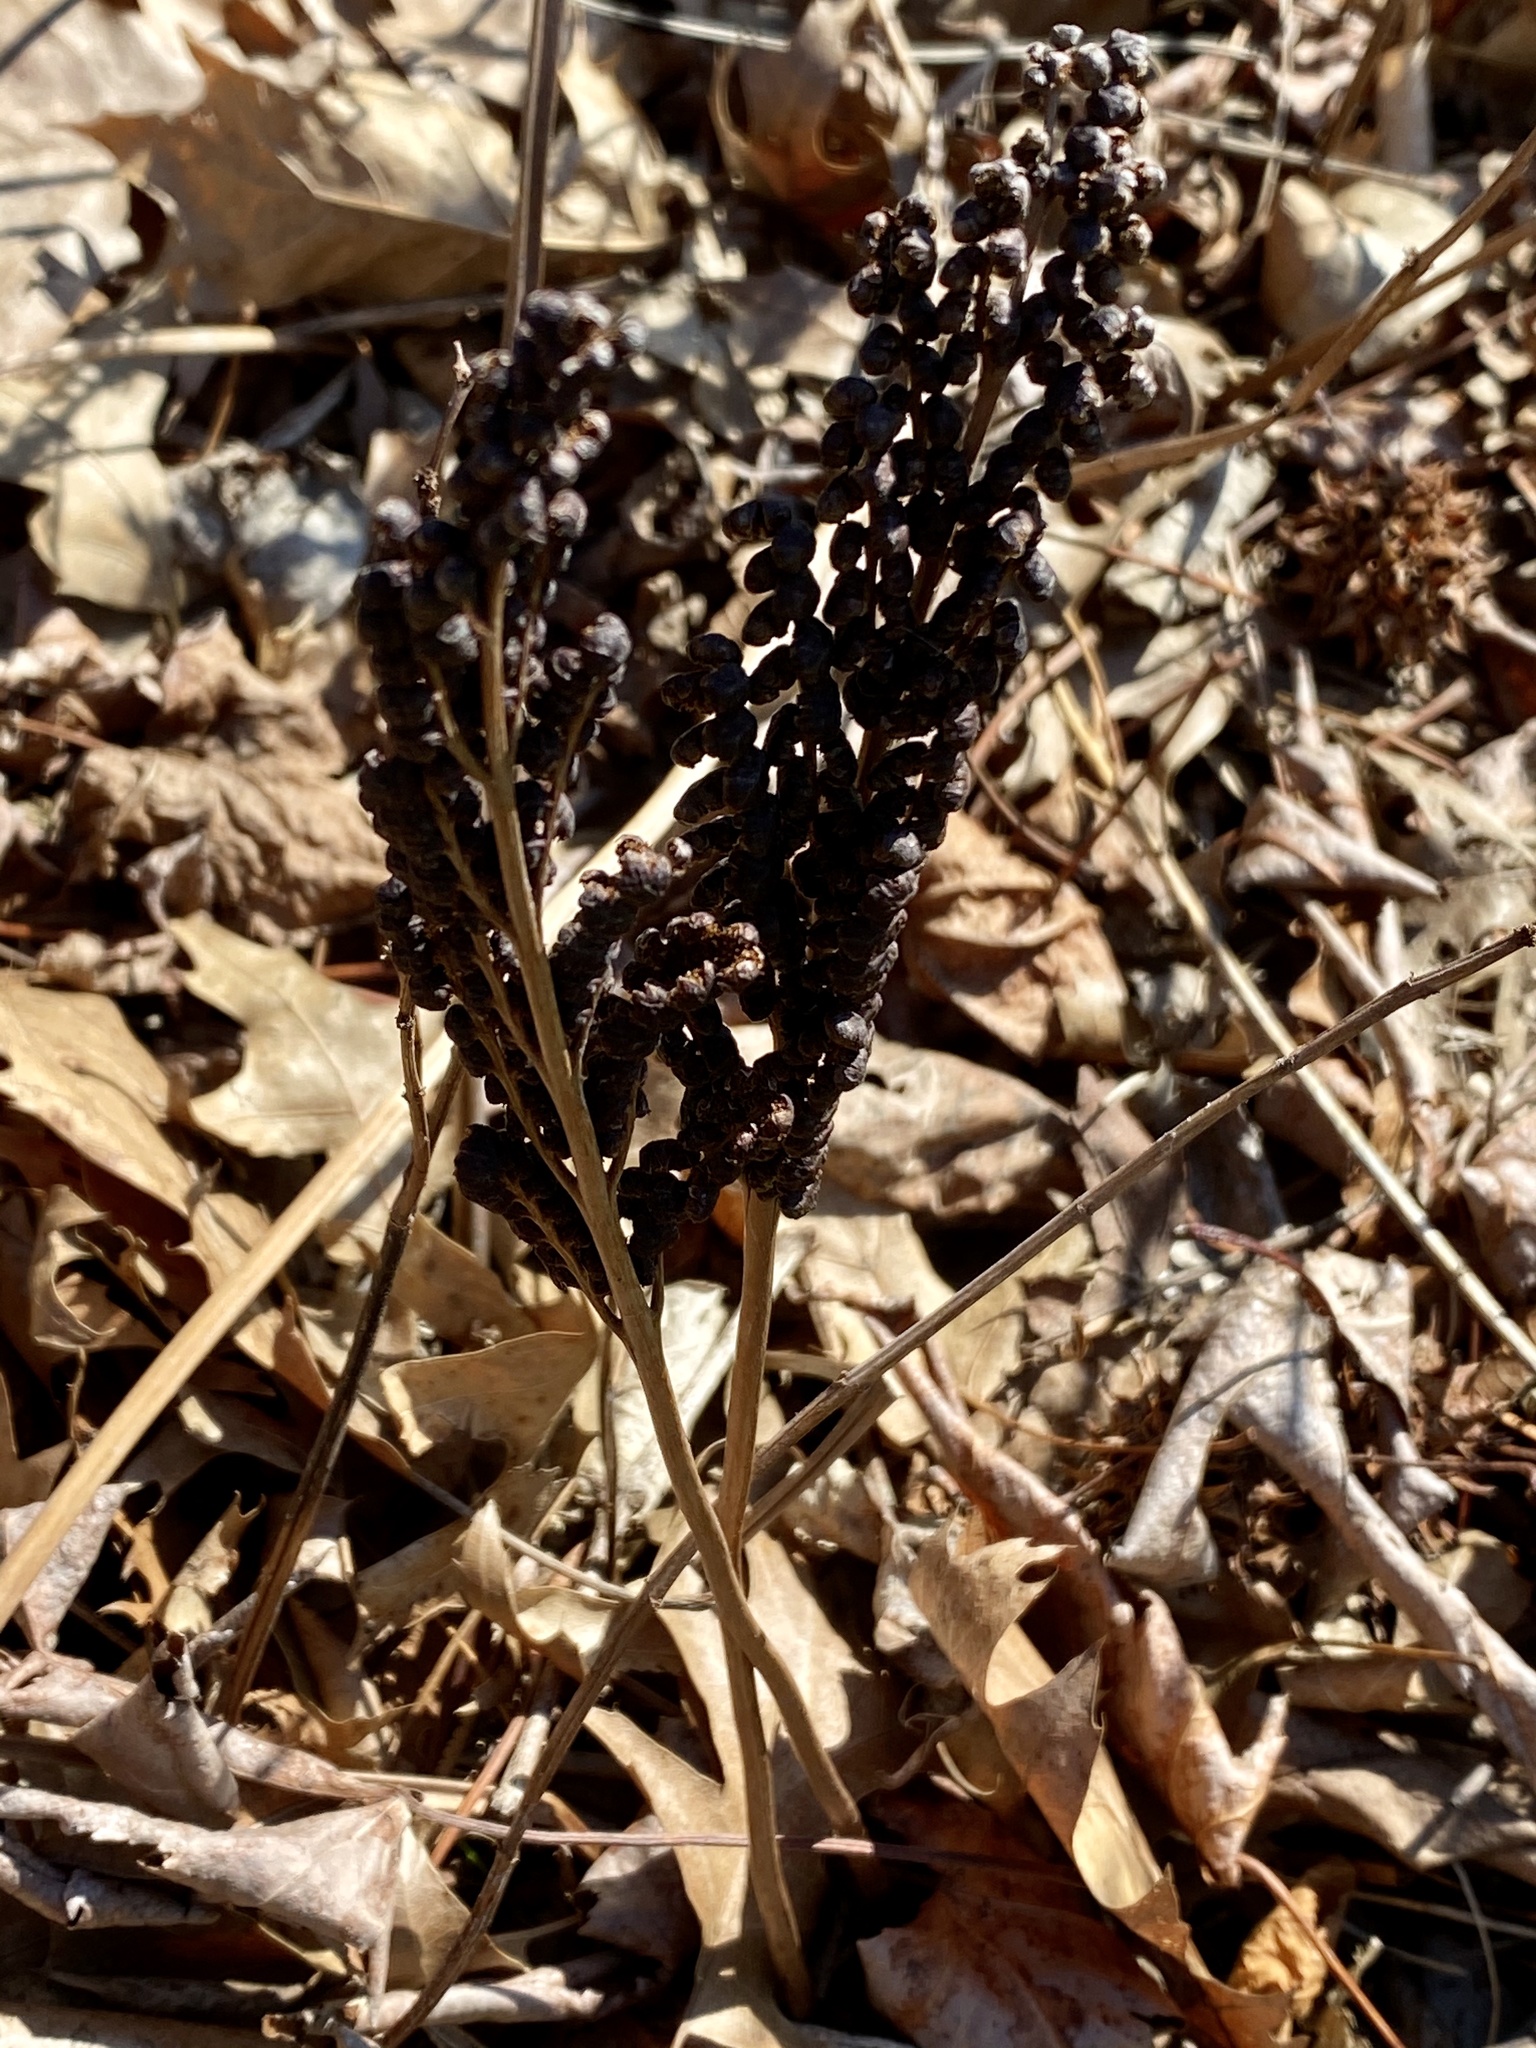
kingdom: Plantae
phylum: Tracheophyta
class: Polypodiopsida
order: Polypodiales
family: Onocleaceae
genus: Onoclea
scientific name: Onoclea sensibilis
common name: Sensitive fern
